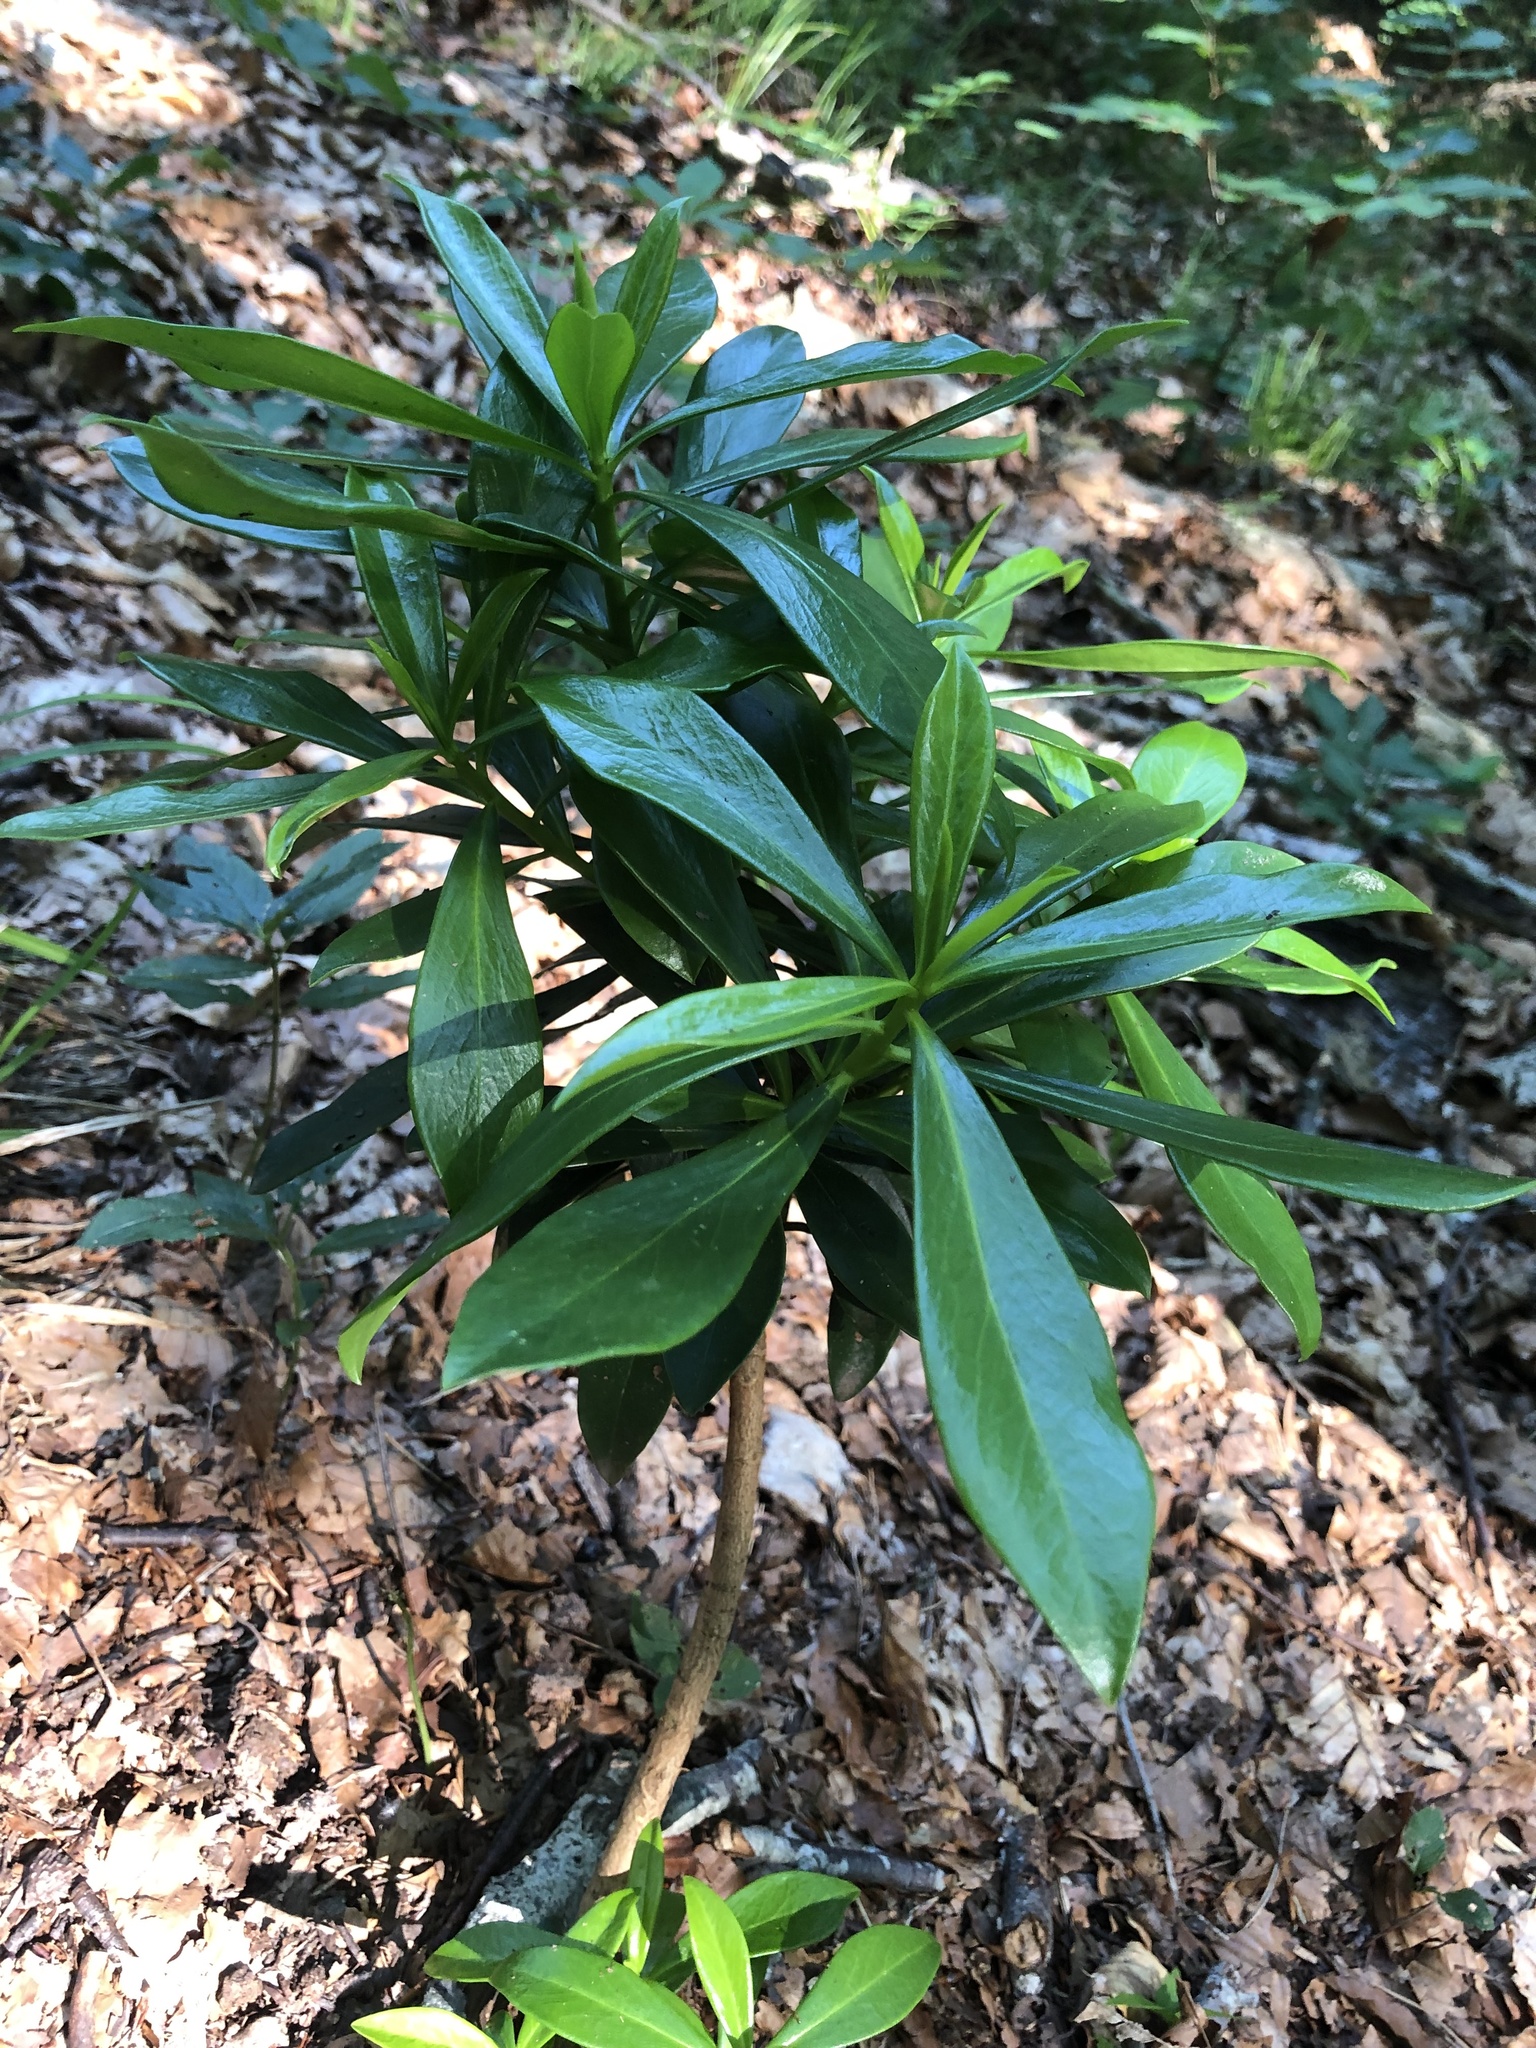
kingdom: Plantae
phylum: Tracheophyta
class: Magnoliopsida
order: Malvales
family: Thymelaeaceae
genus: Daphne
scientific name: Daphne laureola
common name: Spurge-laurel
